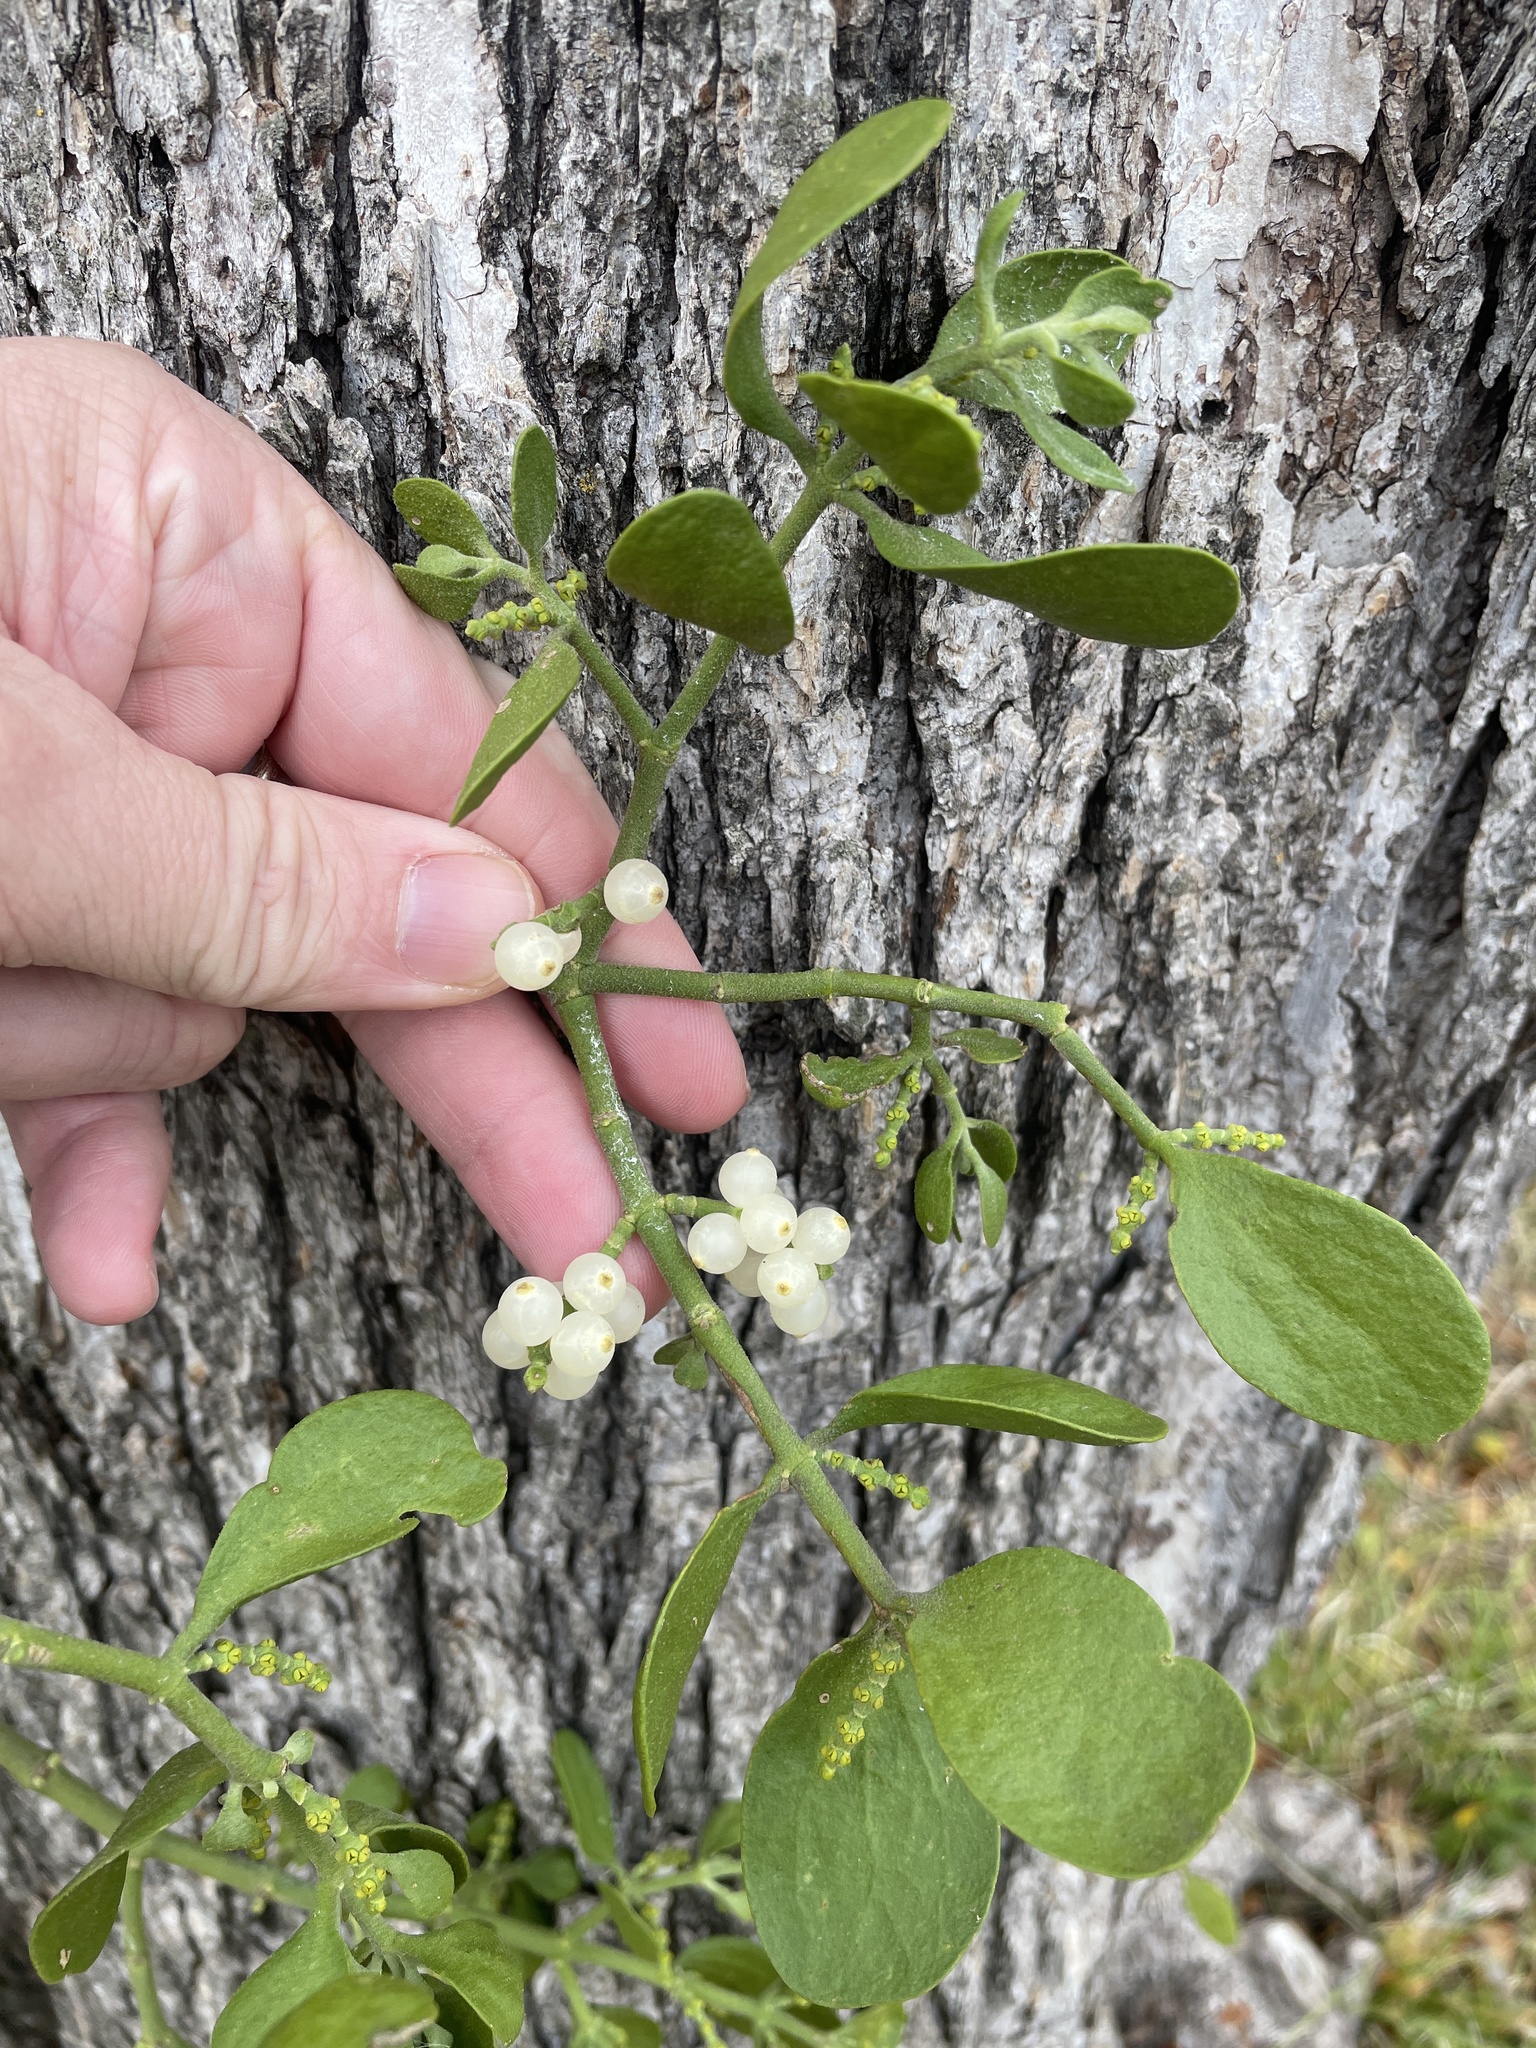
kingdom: Plantae
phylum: Tracheophyta
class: Magnoliopsida
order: Santalales
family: Viscaceae
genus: Phoradendron
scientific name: Phoradendron leucarpum
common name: Pacific mistletoe
